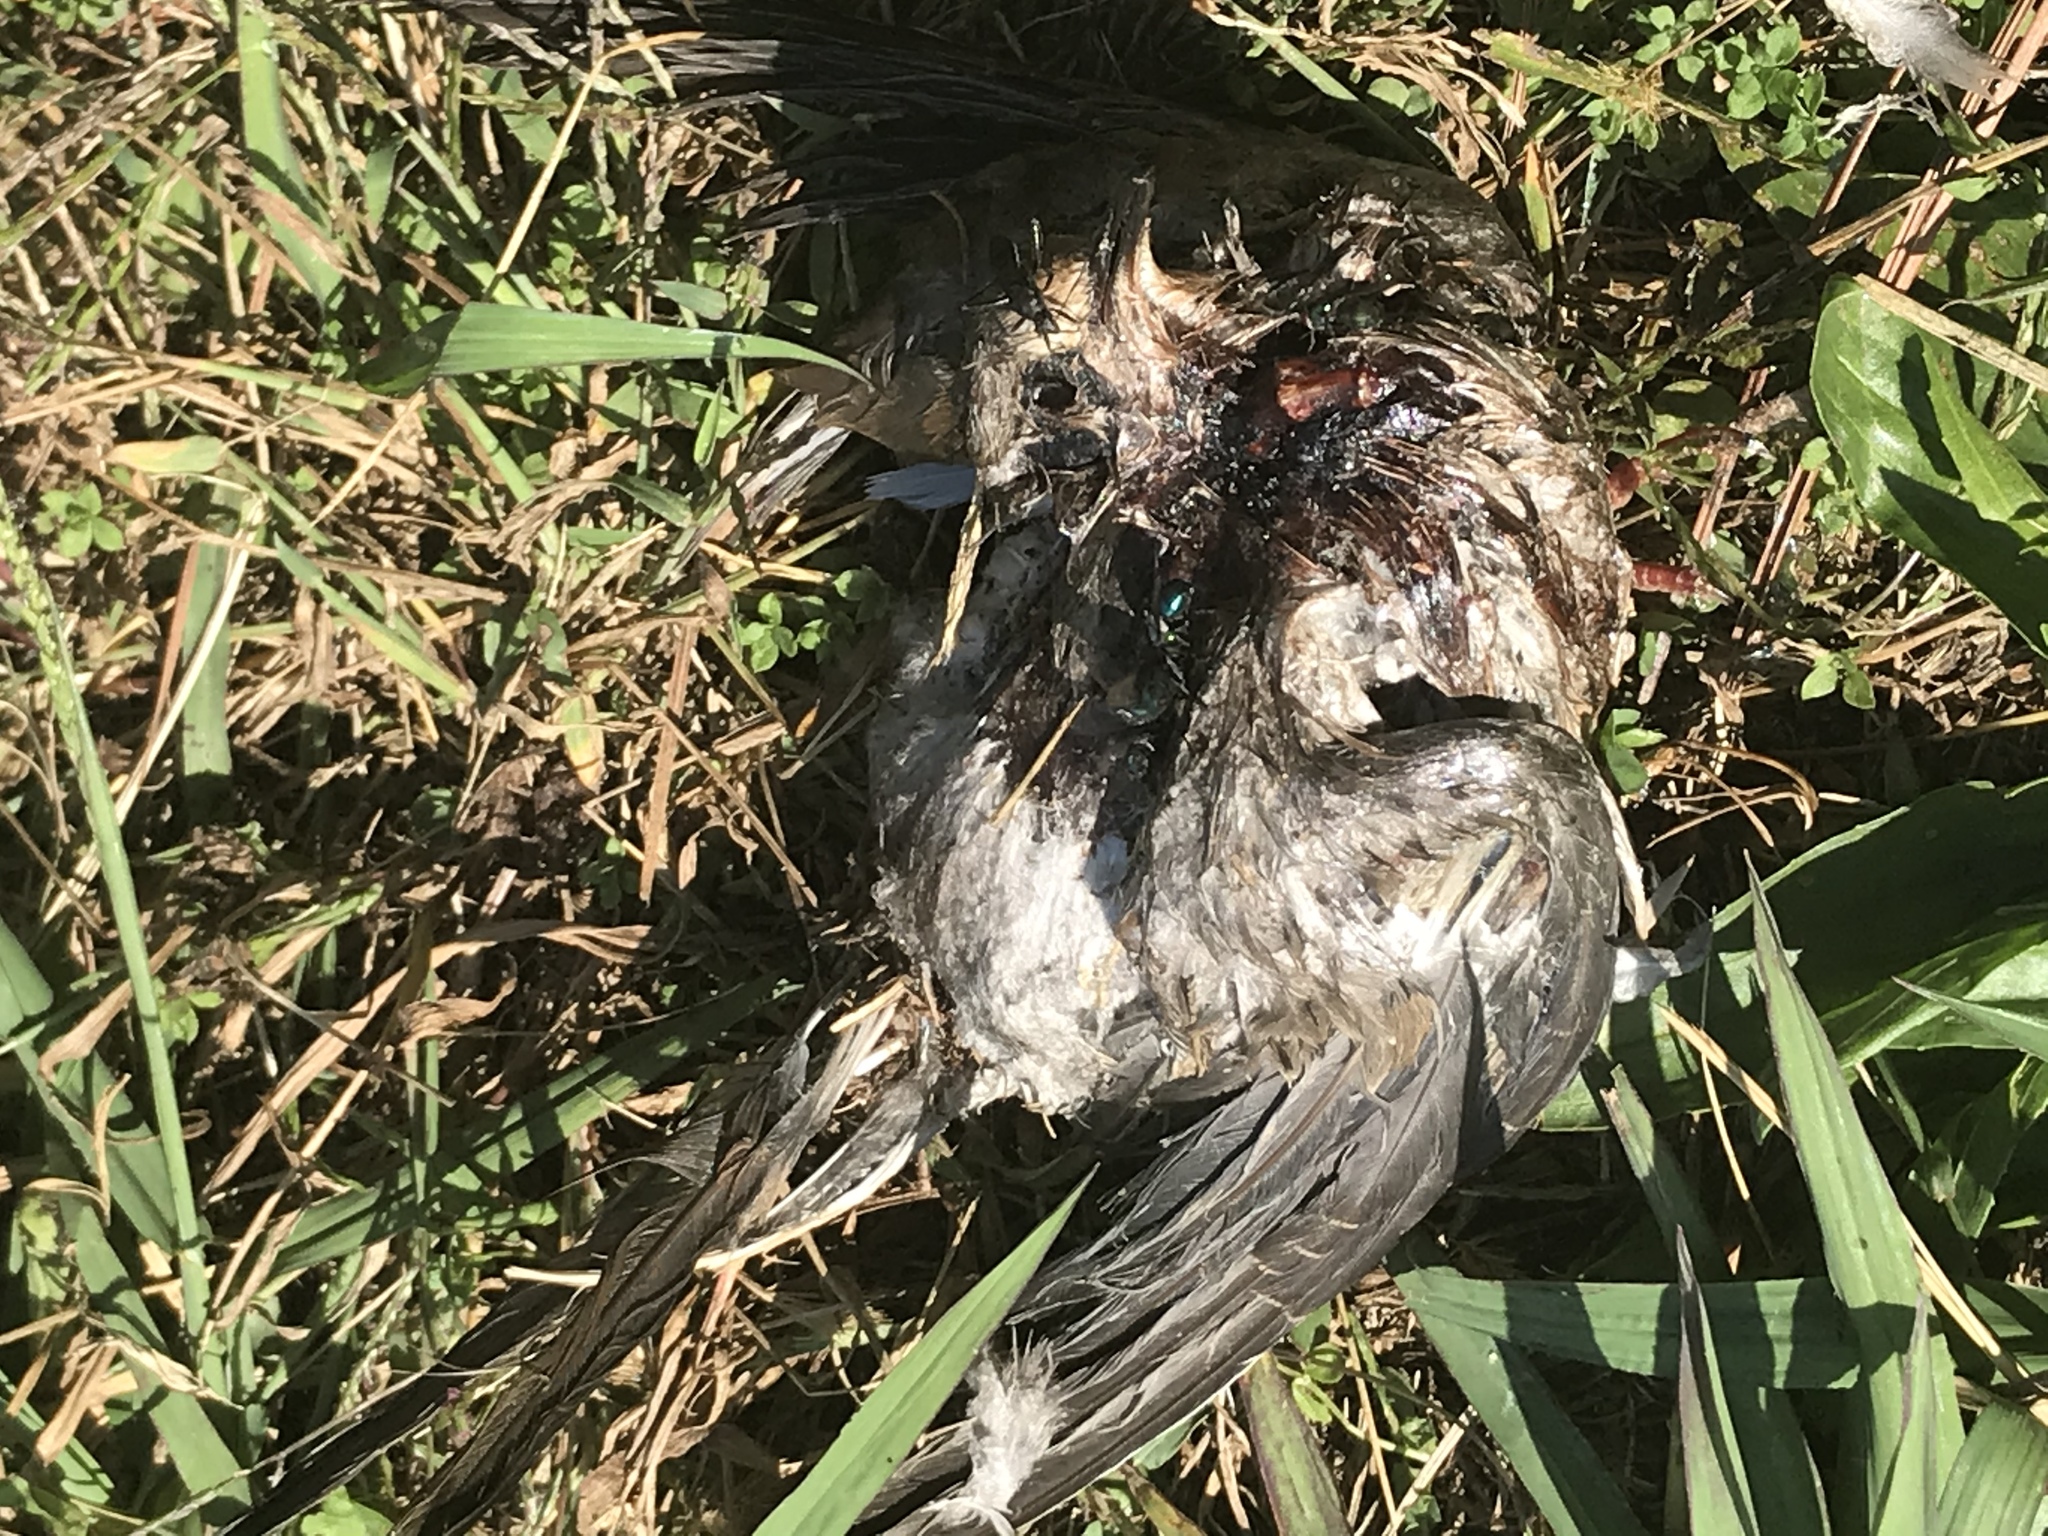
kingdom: Animalia
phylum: Chordata
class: Aves
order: Columbiformes
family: Columbidae
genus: Zenaida
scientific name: Zenaida macroura
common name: Mourning dove
